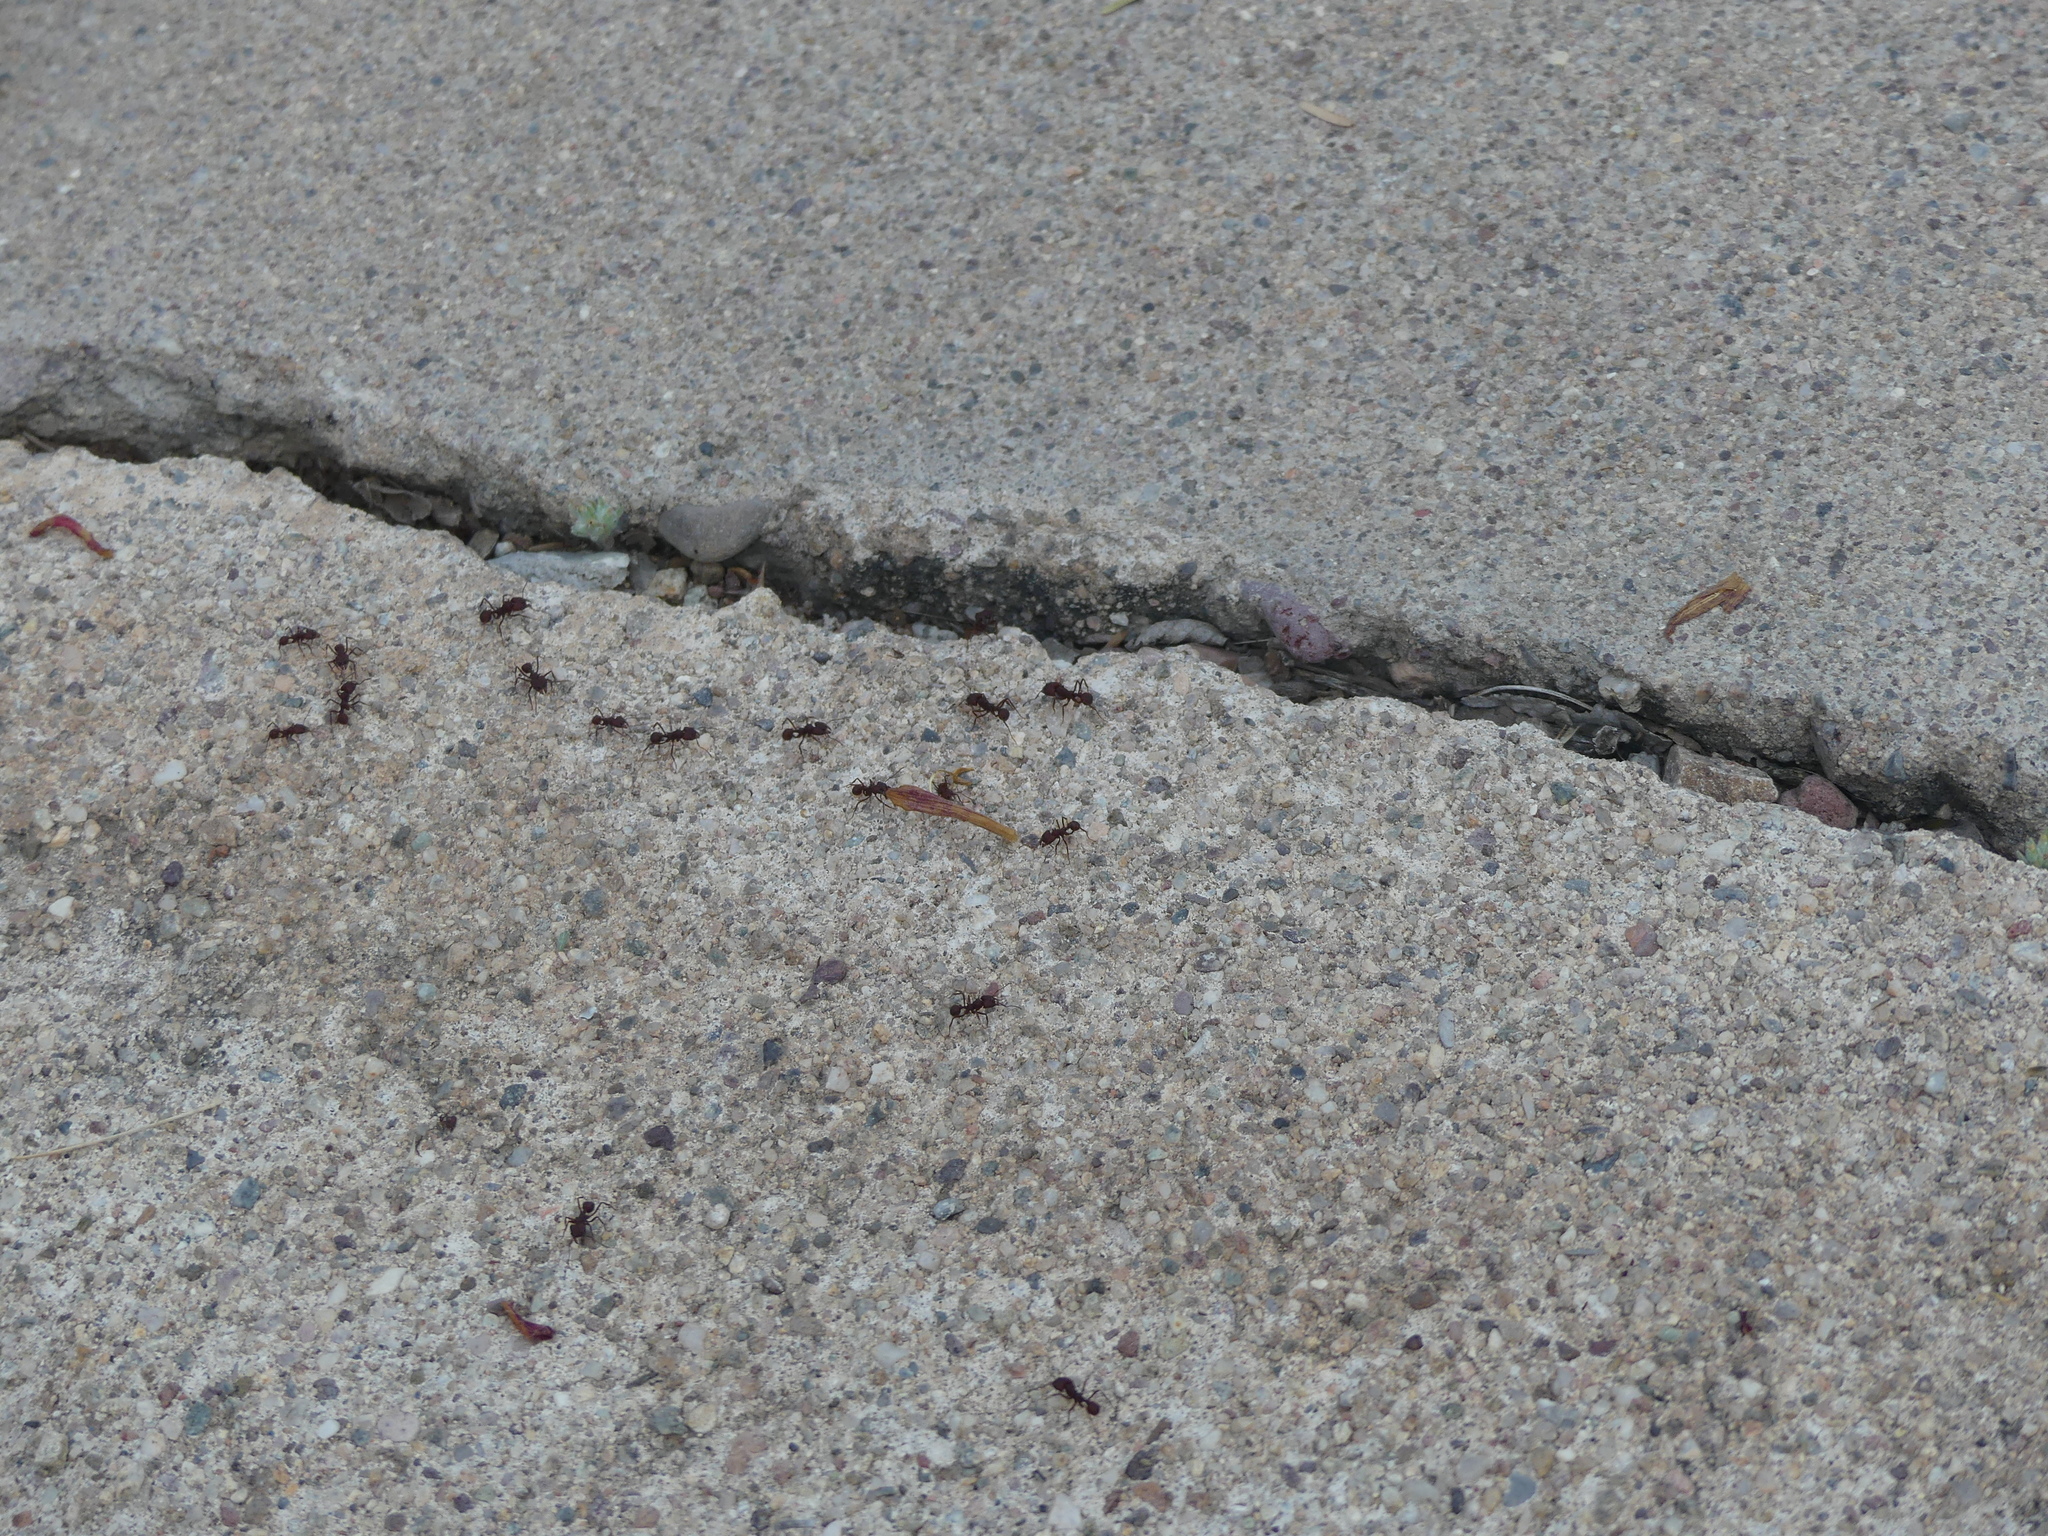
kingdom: Animalia
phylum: Arthropoda
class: Insecta
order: Hymenoptera
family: Formicidae
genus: Acromyrmex
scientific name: Acromyrmex versicolor
